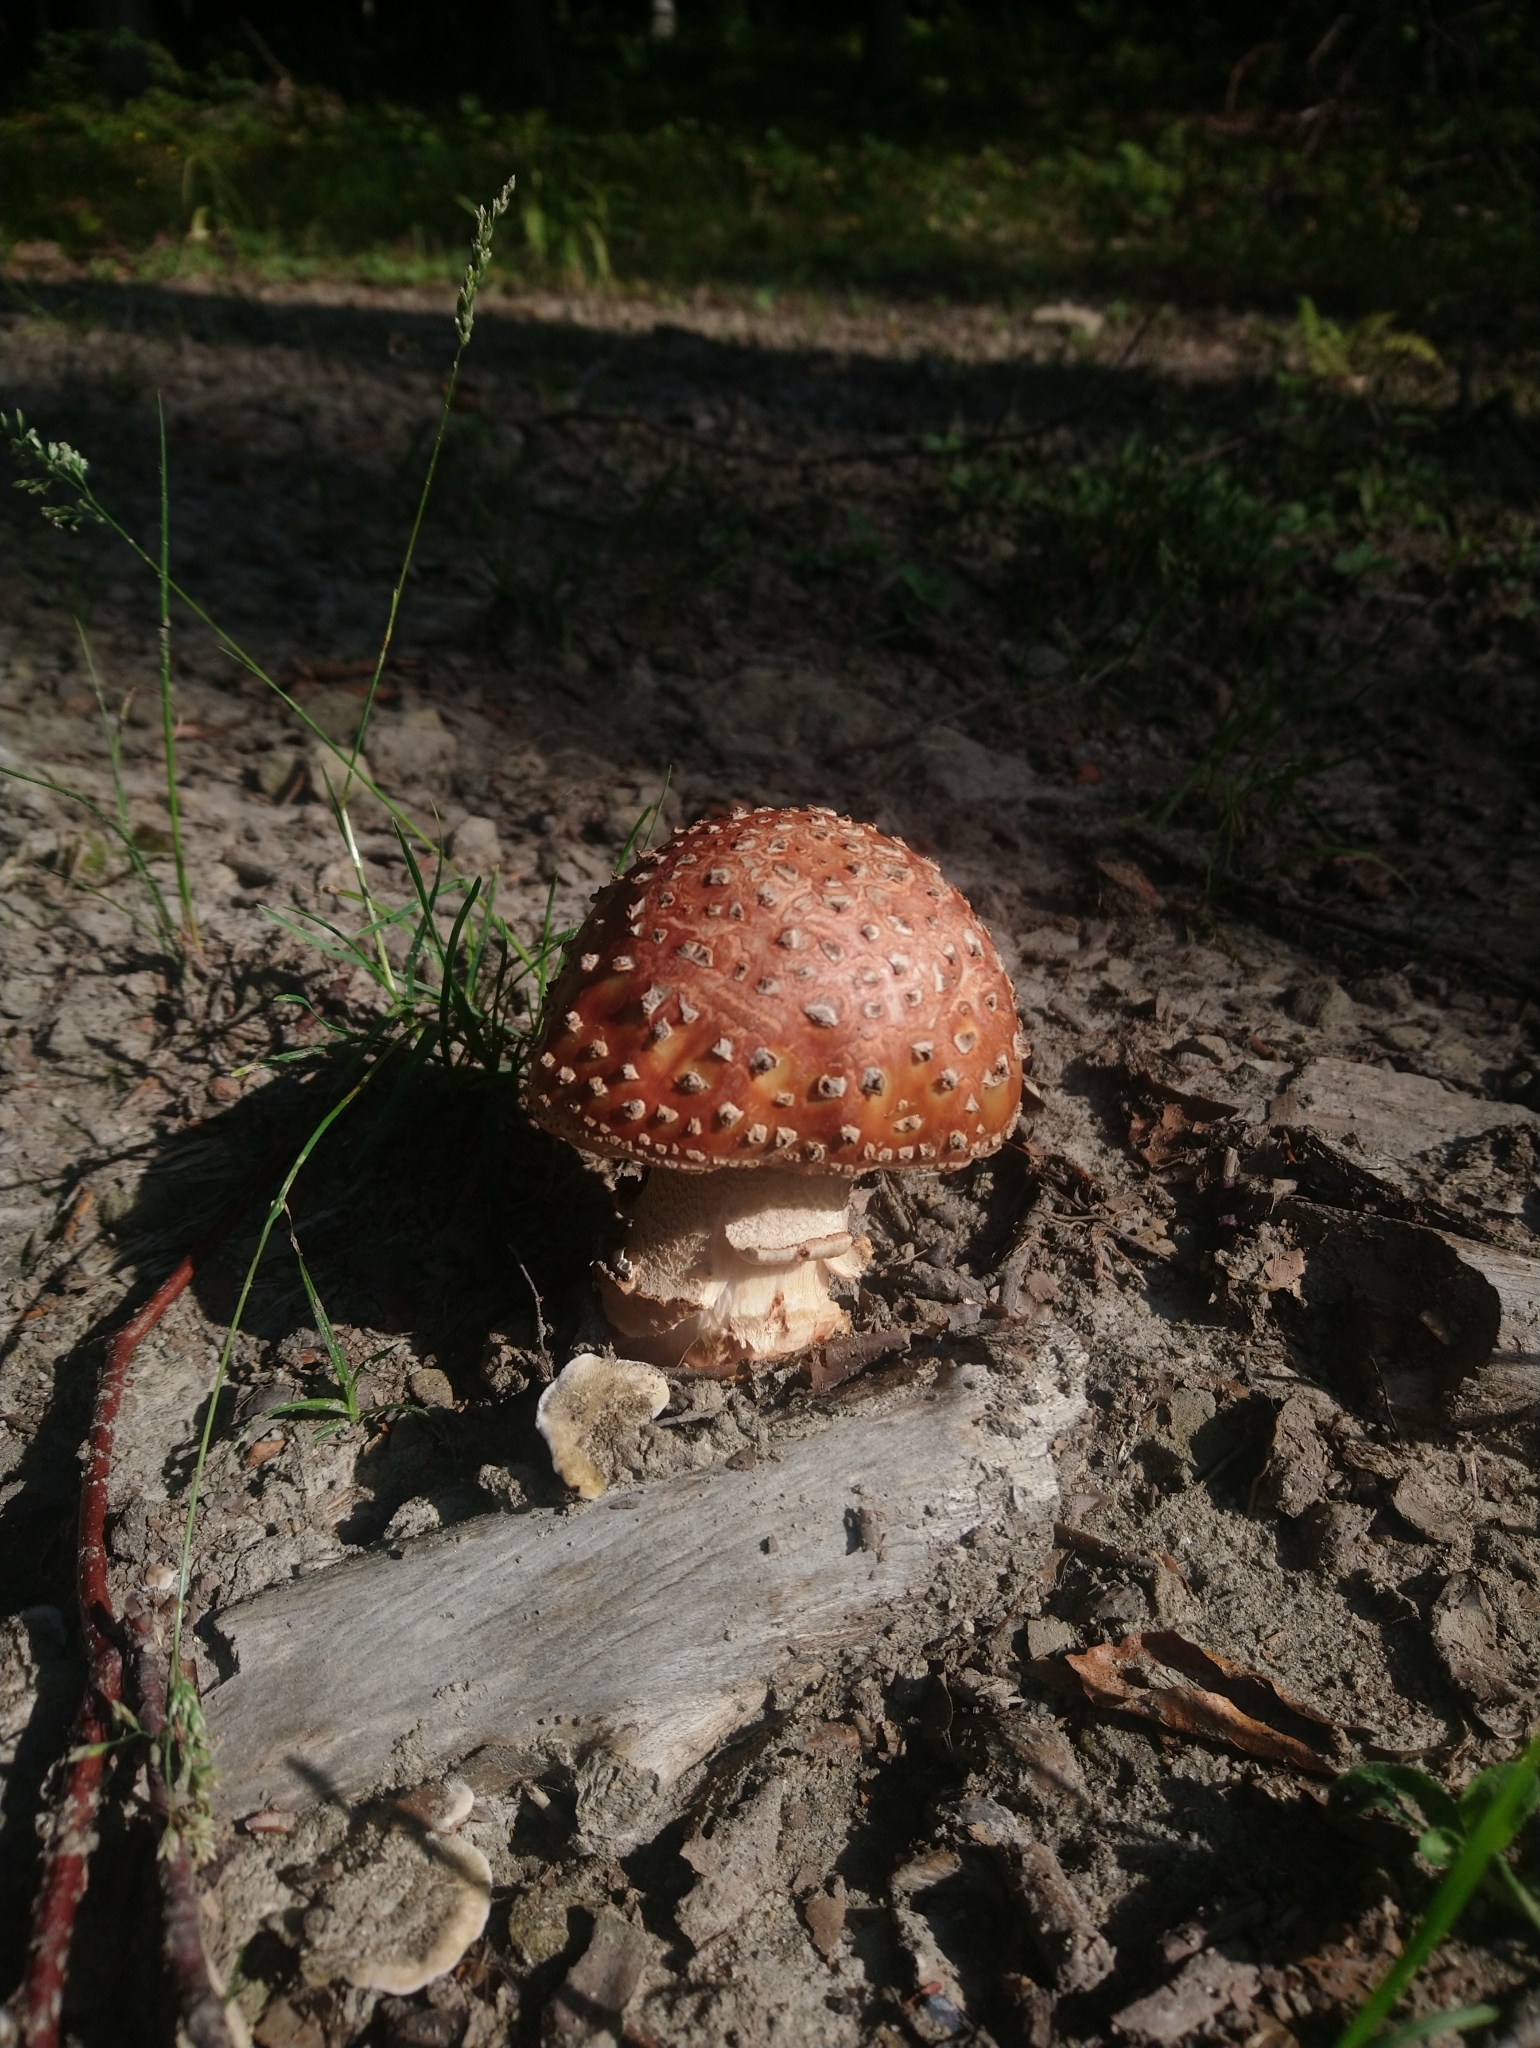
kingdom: Fungi
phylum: Basidiomycota
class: Agaricomycetes
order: Agaricales
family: Amanitaceae
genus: Amanita
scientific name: Amanita rubescens
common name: Blusher
